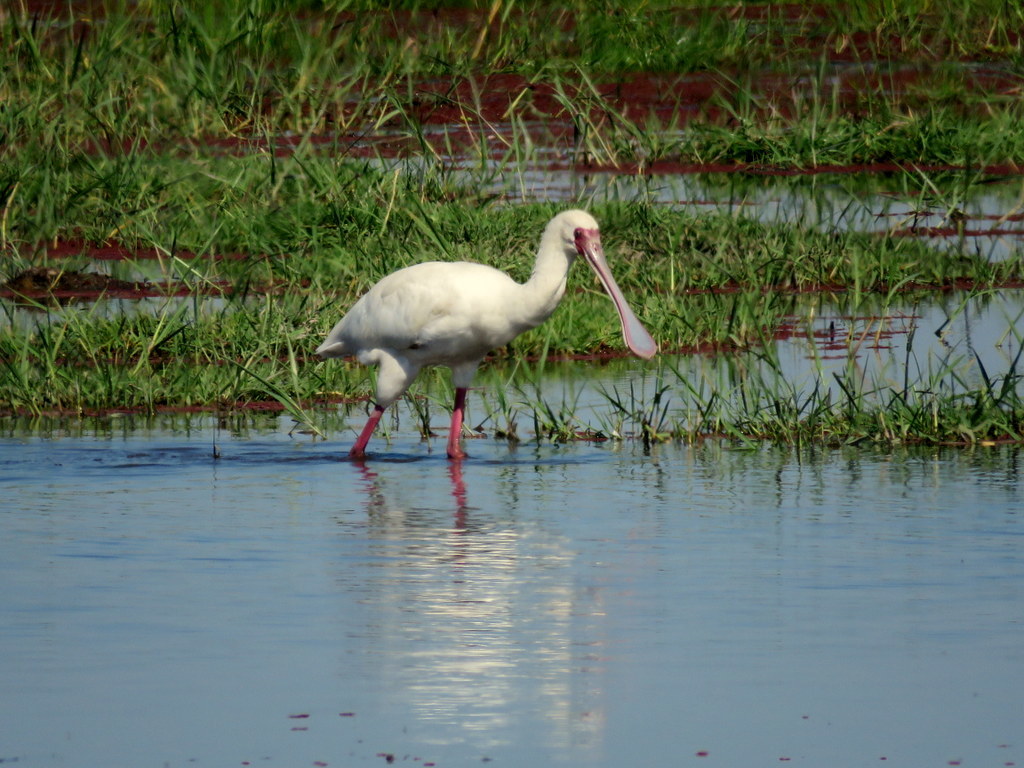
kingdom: Animalia
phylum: Chordata
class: Aves
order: Pelecaniformes
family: Threskiornithidae
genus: Platalea
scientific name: Platalea alba
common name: African spoonbill
